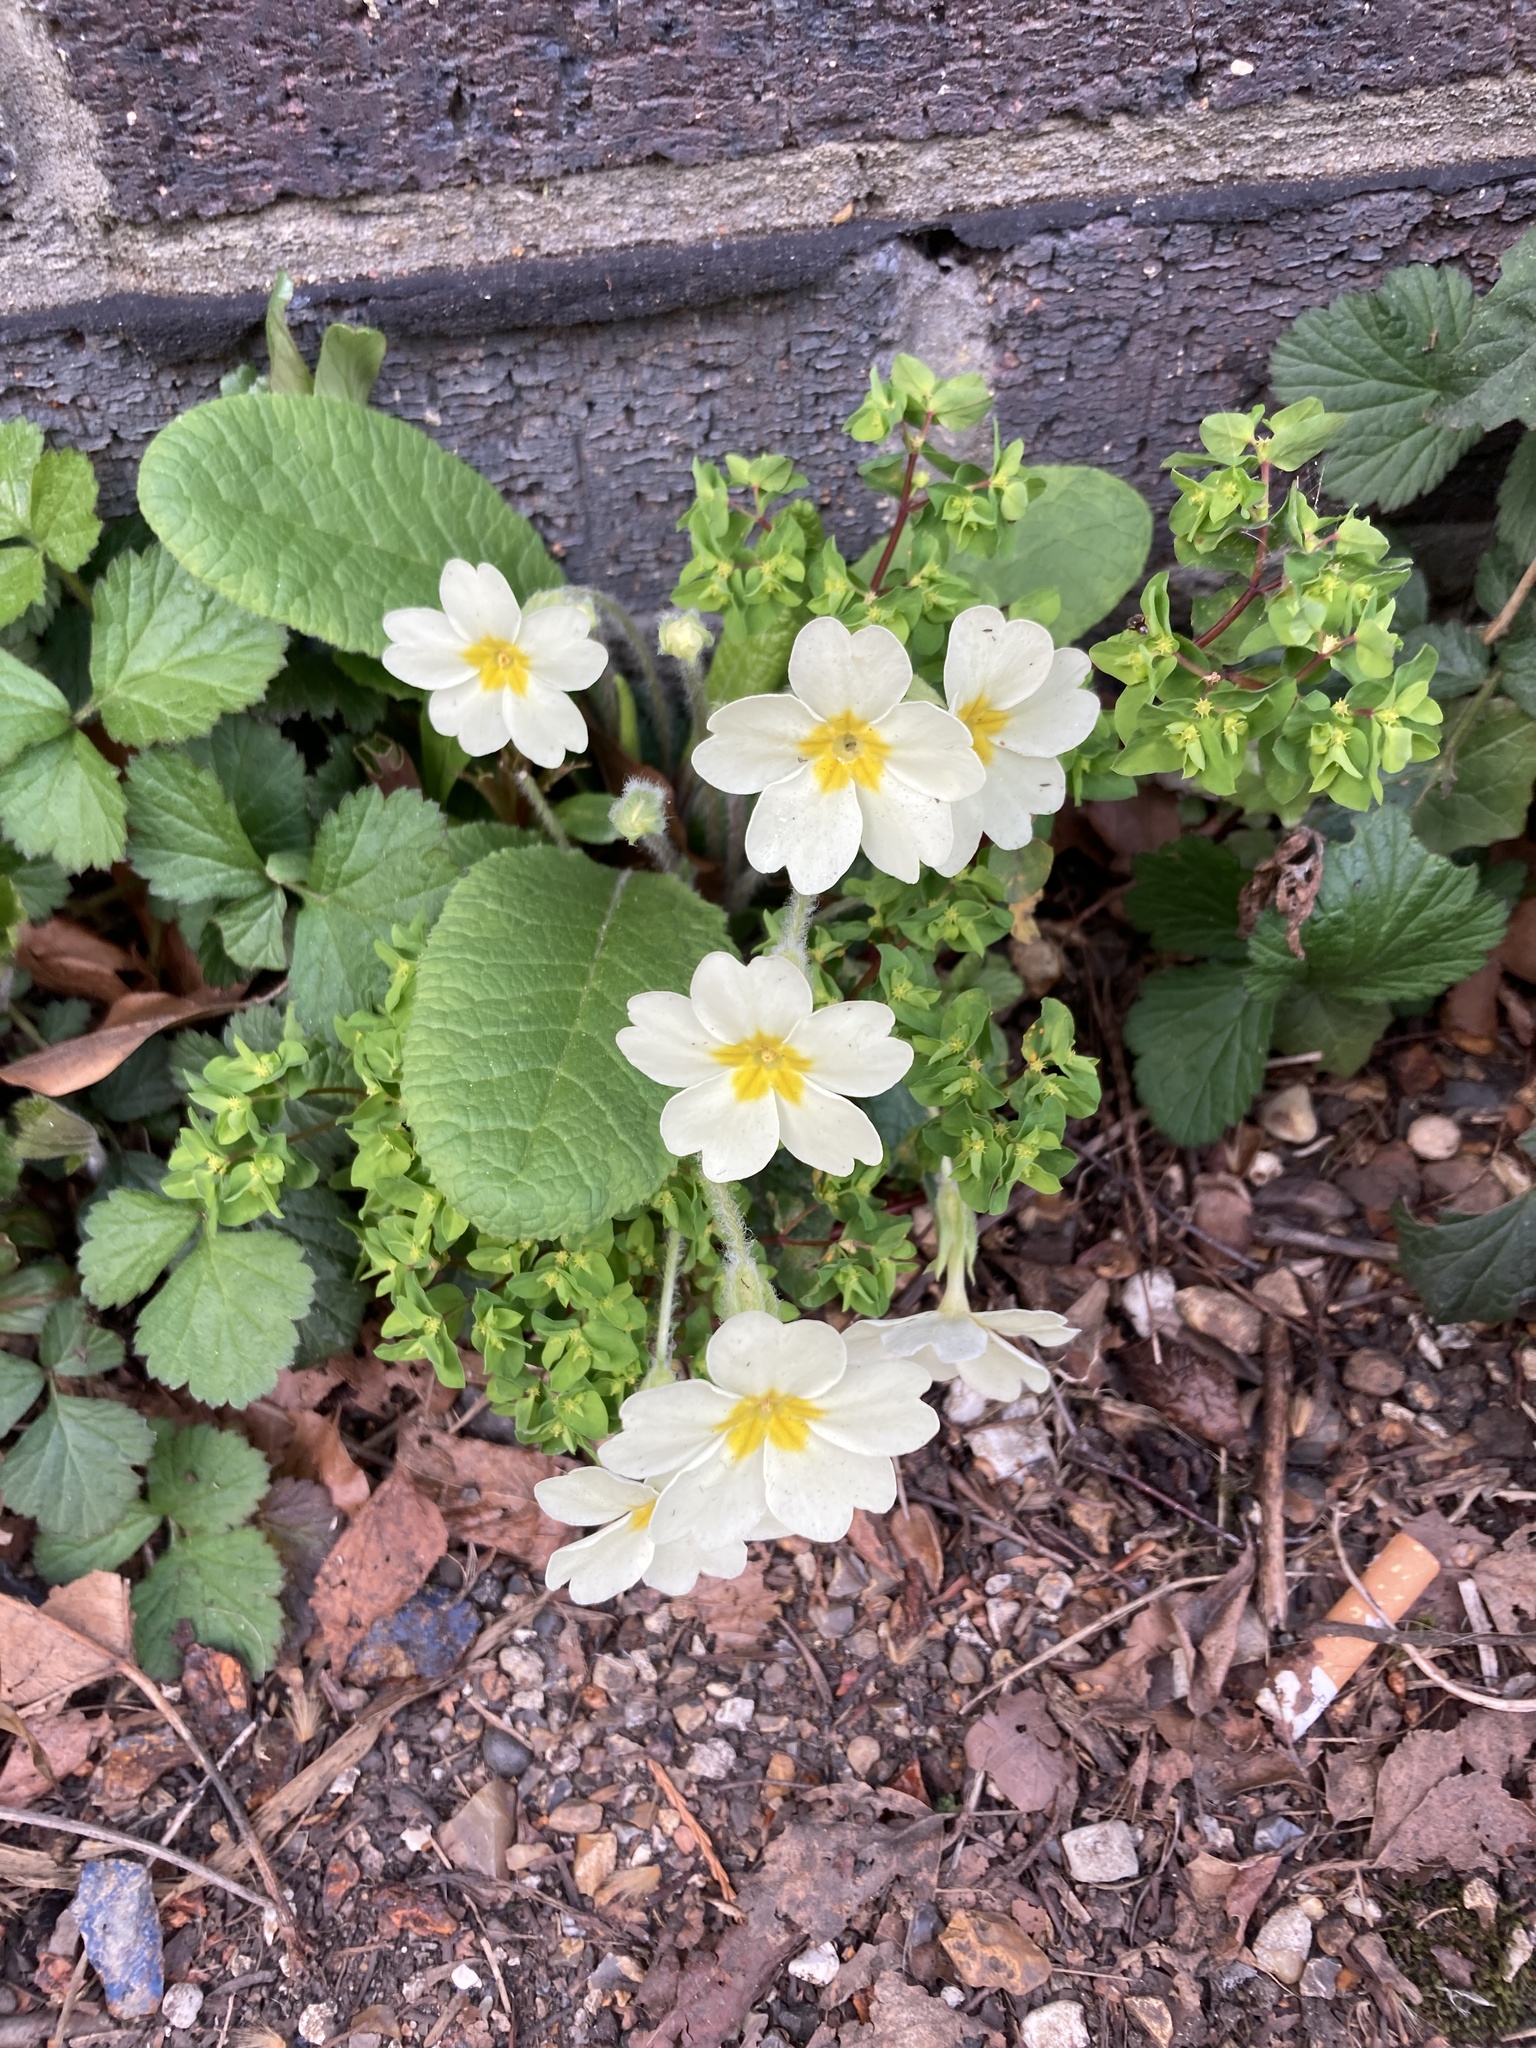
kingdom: Plantae
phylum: Tracheophyta
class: Magnoliopsida
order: Ericales
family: Primulaceae
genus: Primula
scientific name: Primula vulgaris
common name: Primrose
